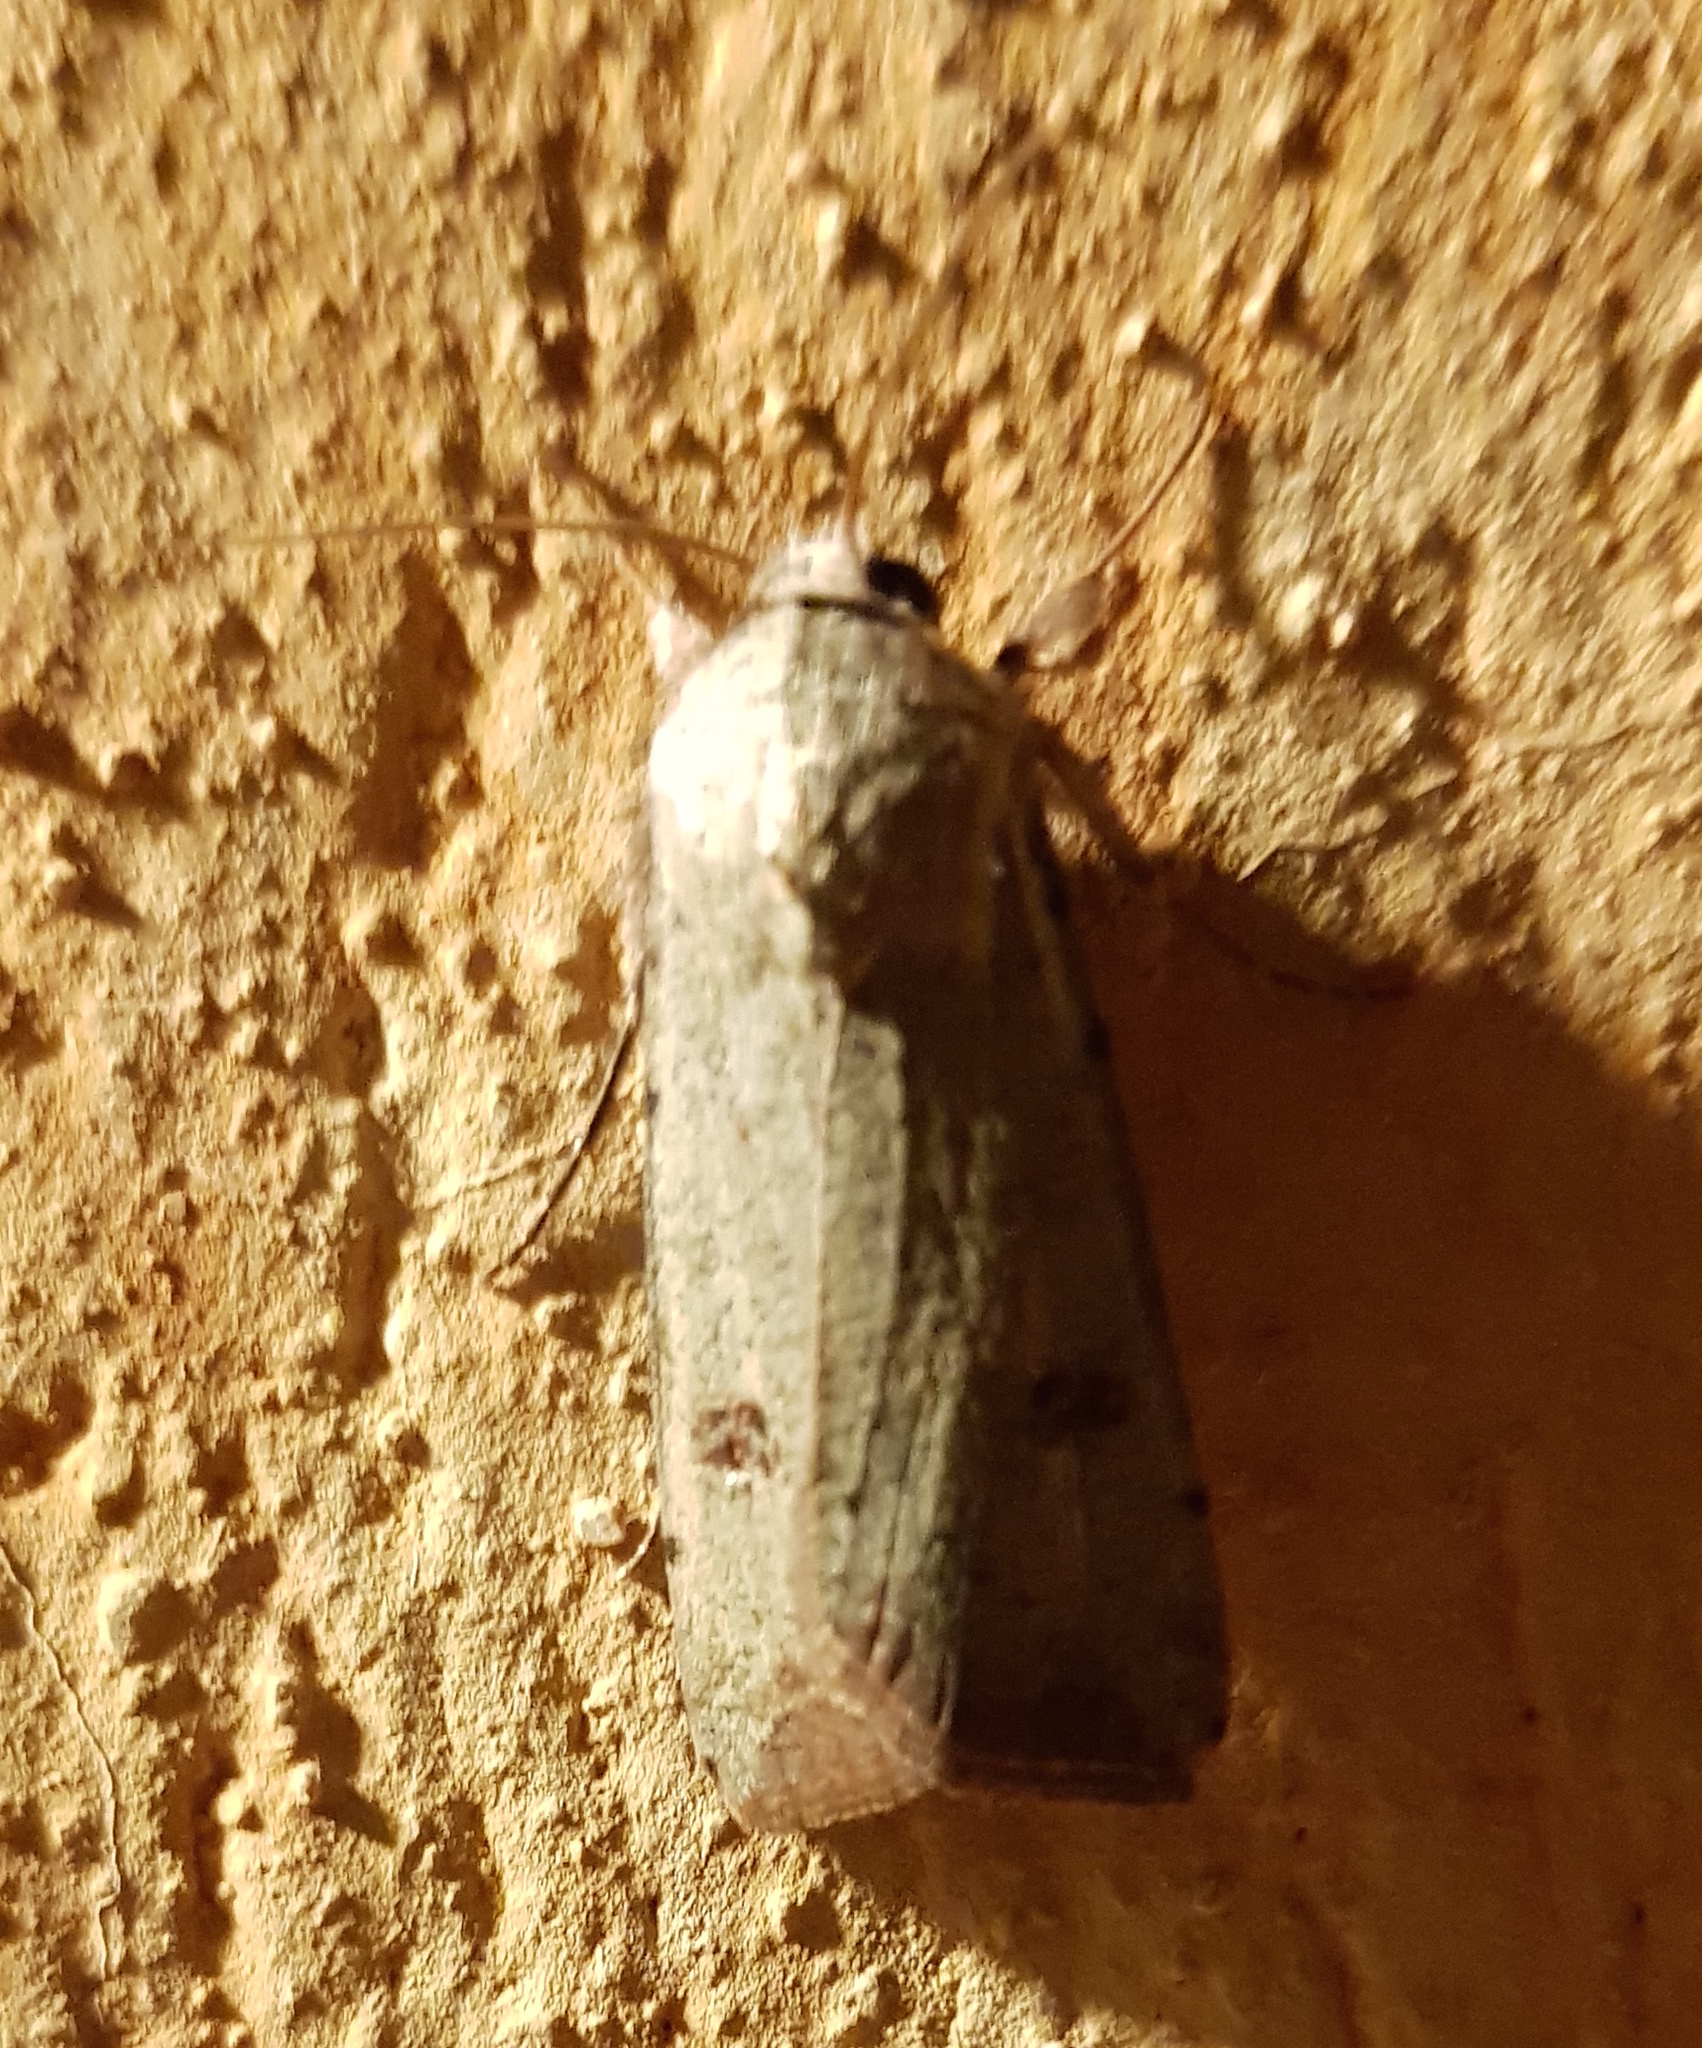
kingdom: Animalia
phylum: Arthropoda
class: Insecta
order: Lepidoptera
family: Noctuidae
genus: Anicla
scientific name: Anicla infecta
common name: Green cutworm
